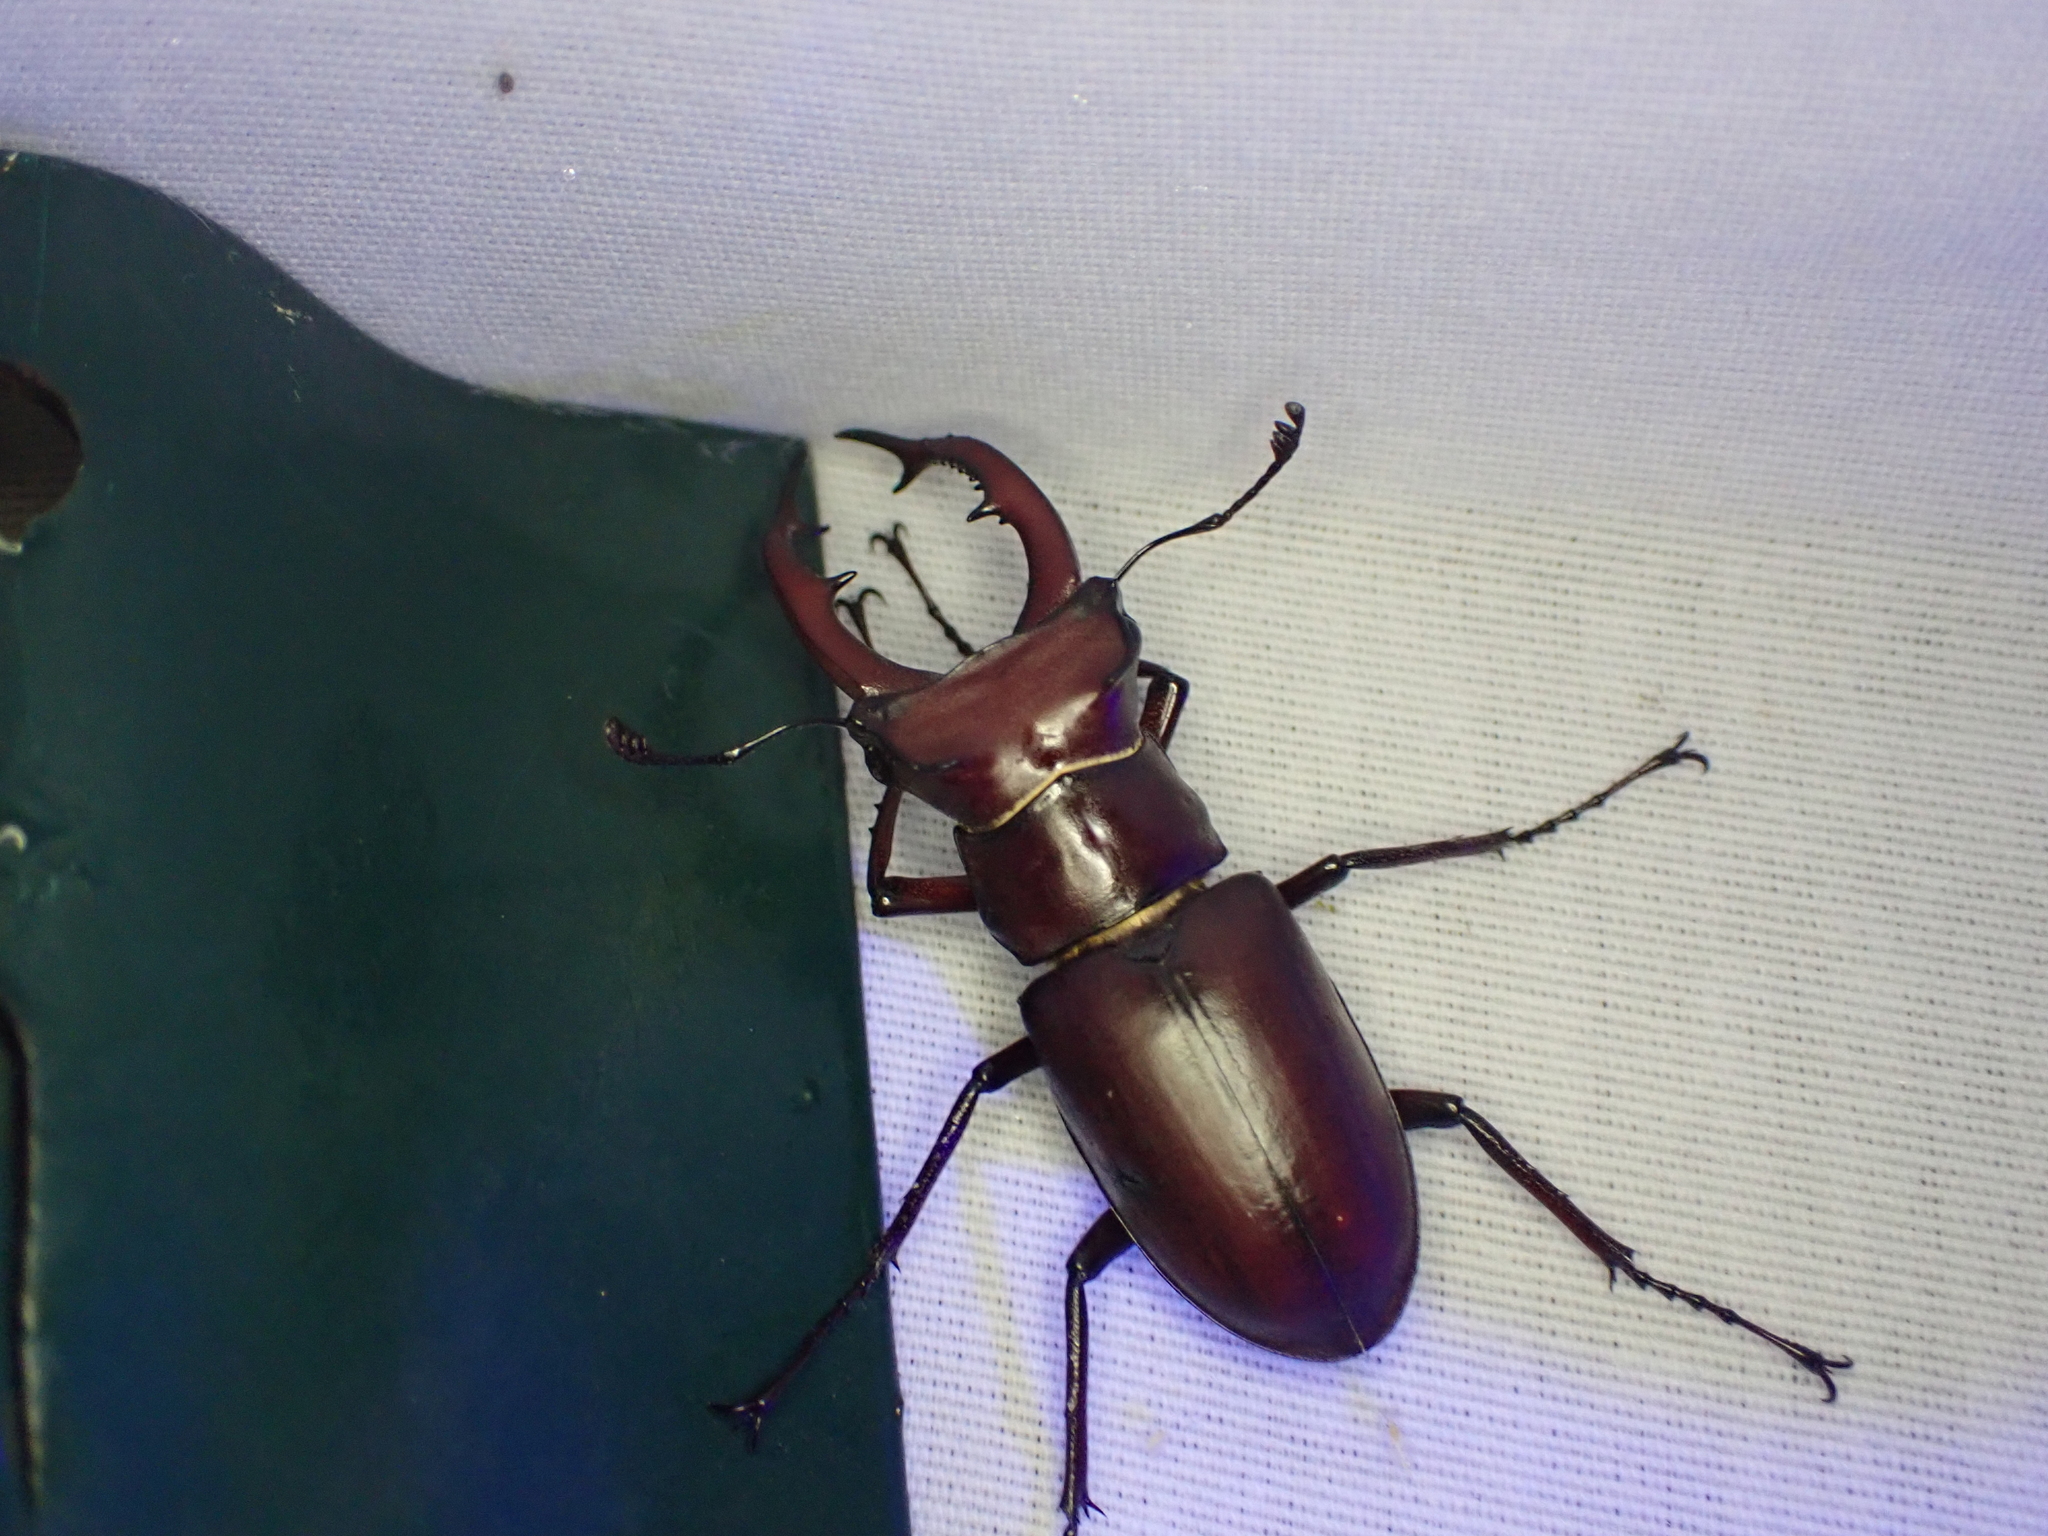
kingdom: Animalia
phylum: Arthropoda
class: Insecta
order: Coleoptera
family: Lucanidae
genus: Lucanus
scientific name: Lucanus elaphus
